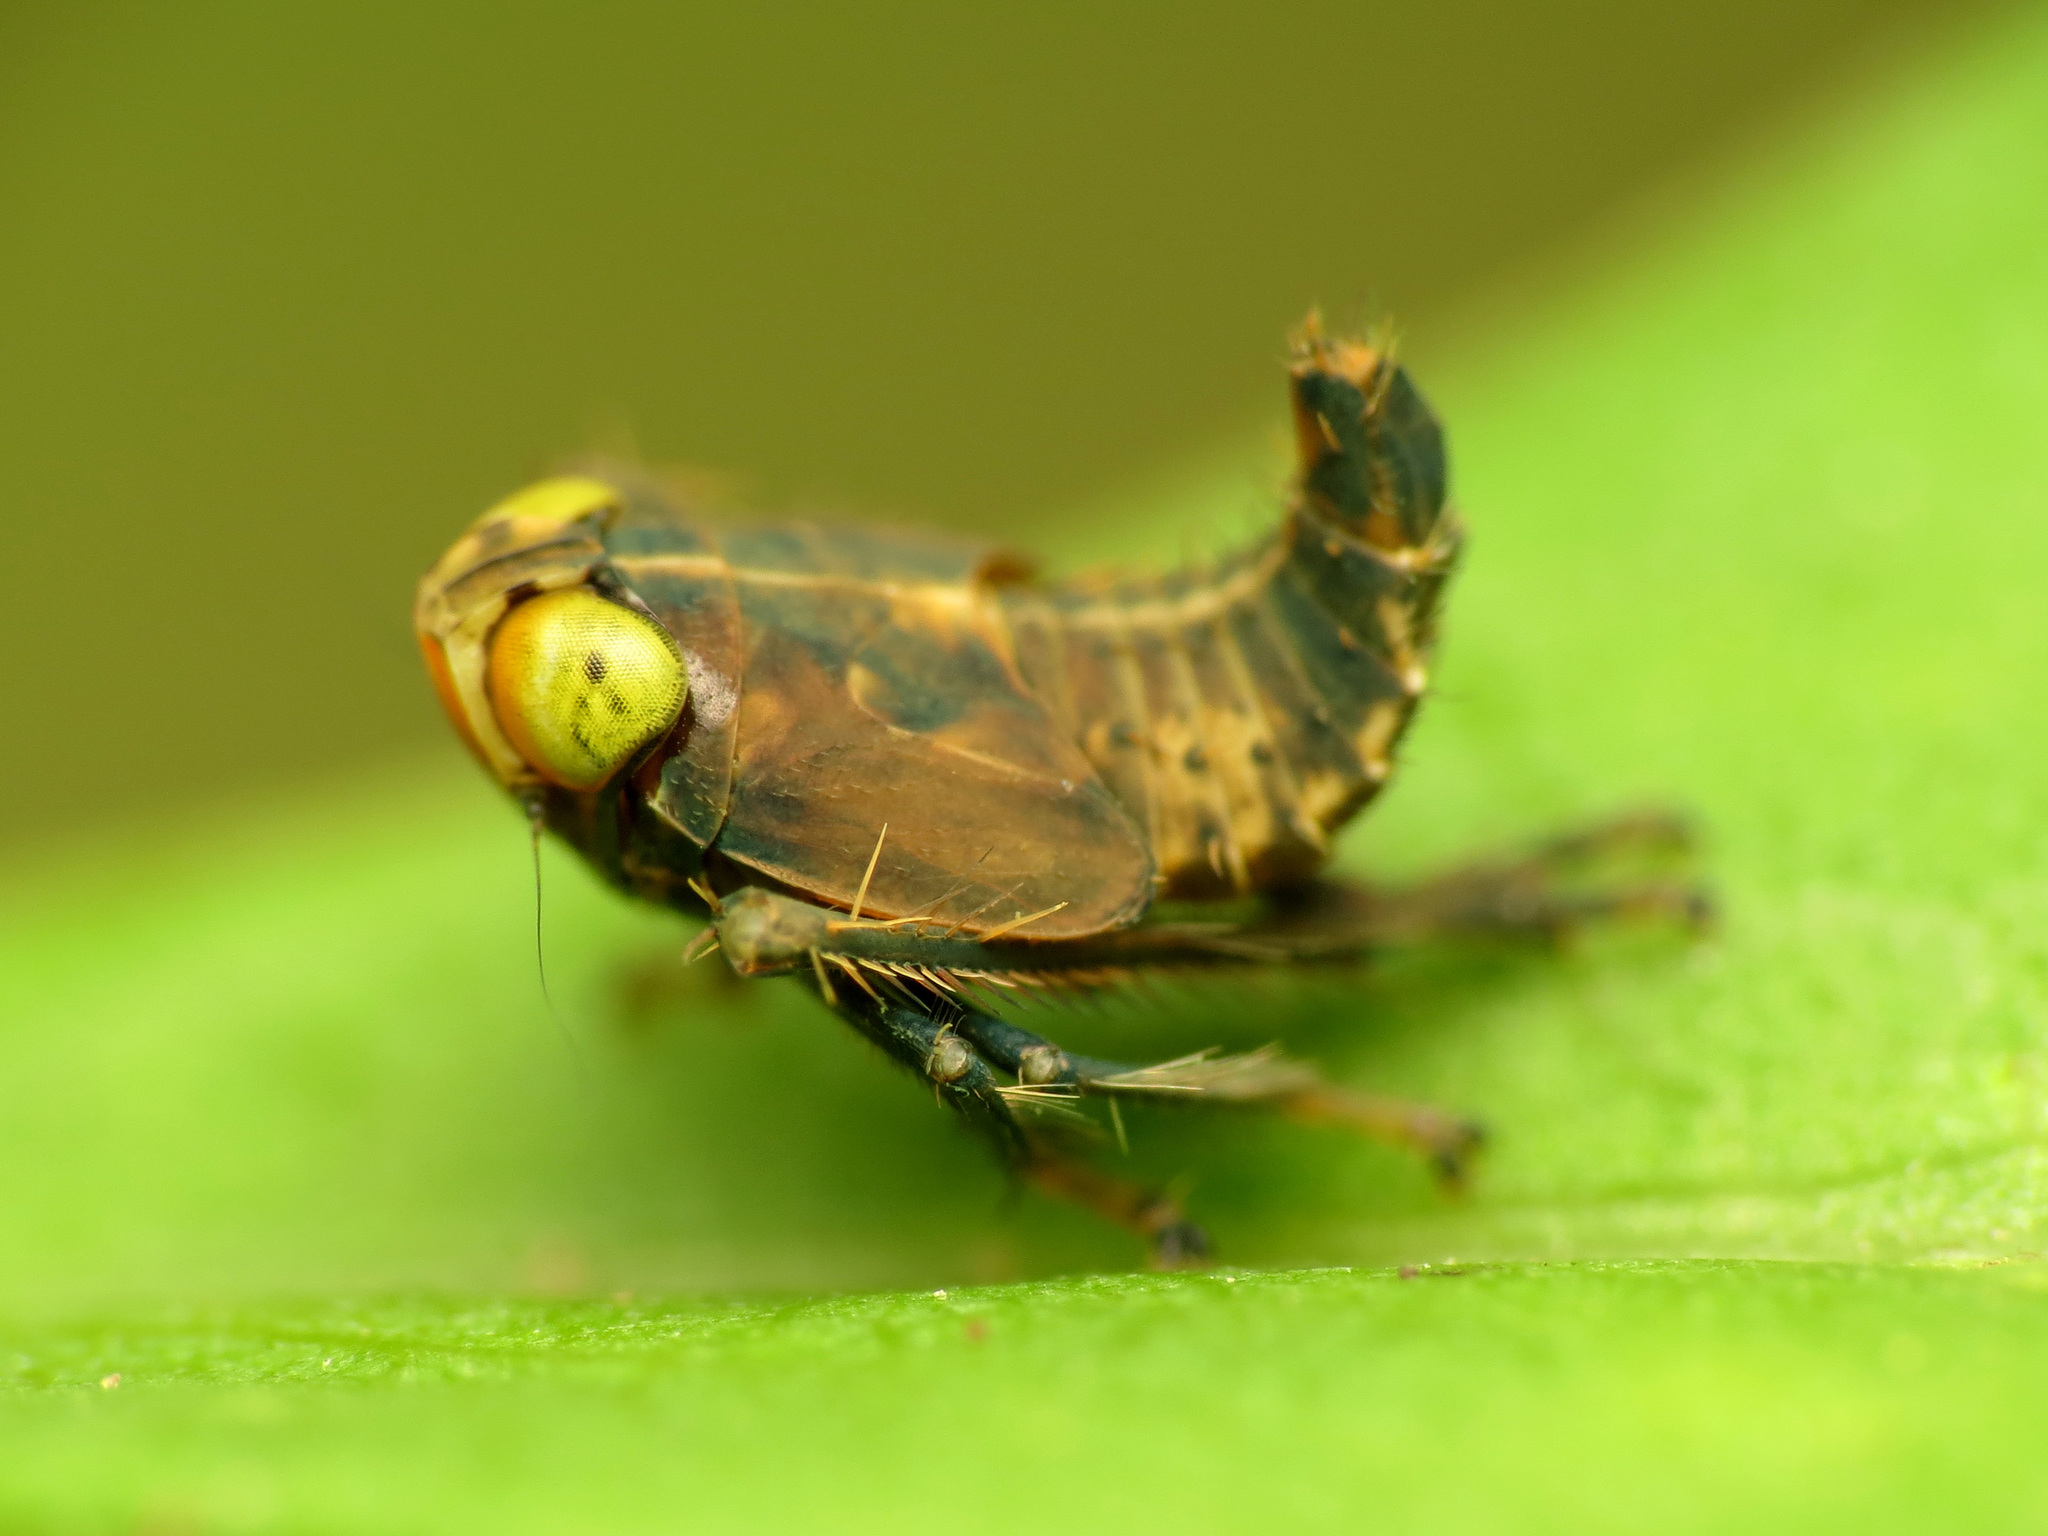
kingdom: Animalia
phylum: Arthropoda
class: Insecta
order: Hemiptera
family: Cicadellidae
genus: Jikradia
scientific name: Jikradia olitoria
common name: Coppery leafhopper
